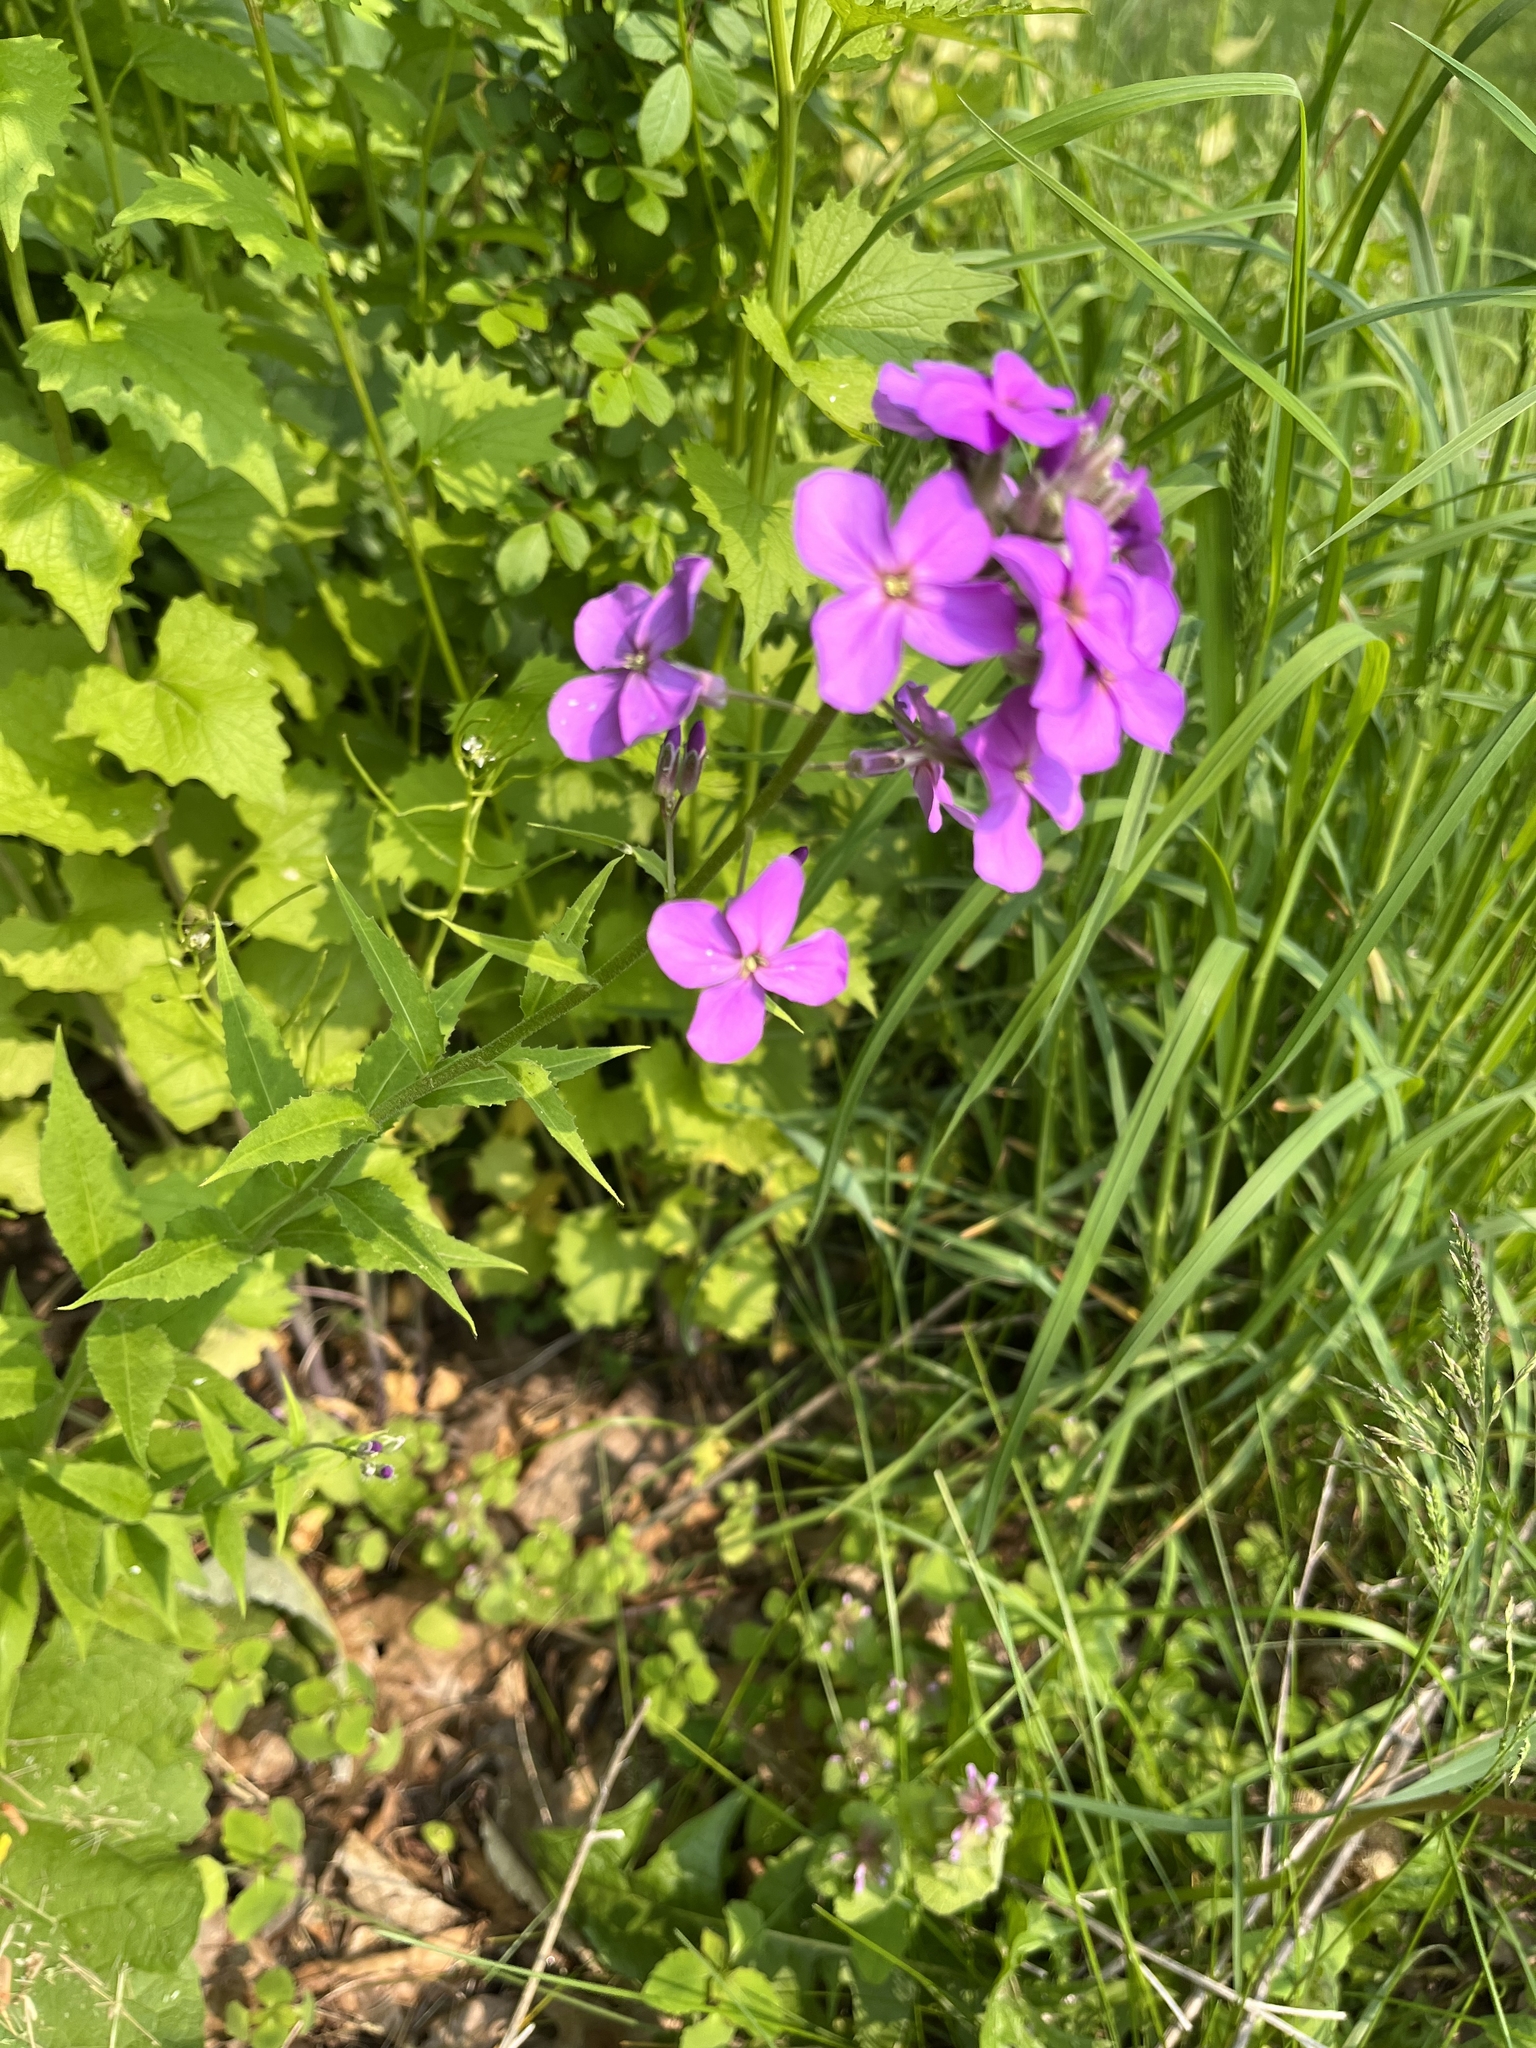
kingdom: Plantae
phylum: Tracheophyta
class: Magnoliopsida
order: Brassicales
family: Brassicaceae
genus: Hesperis
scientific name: Hesperis matronalis
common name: Dame's-violet
